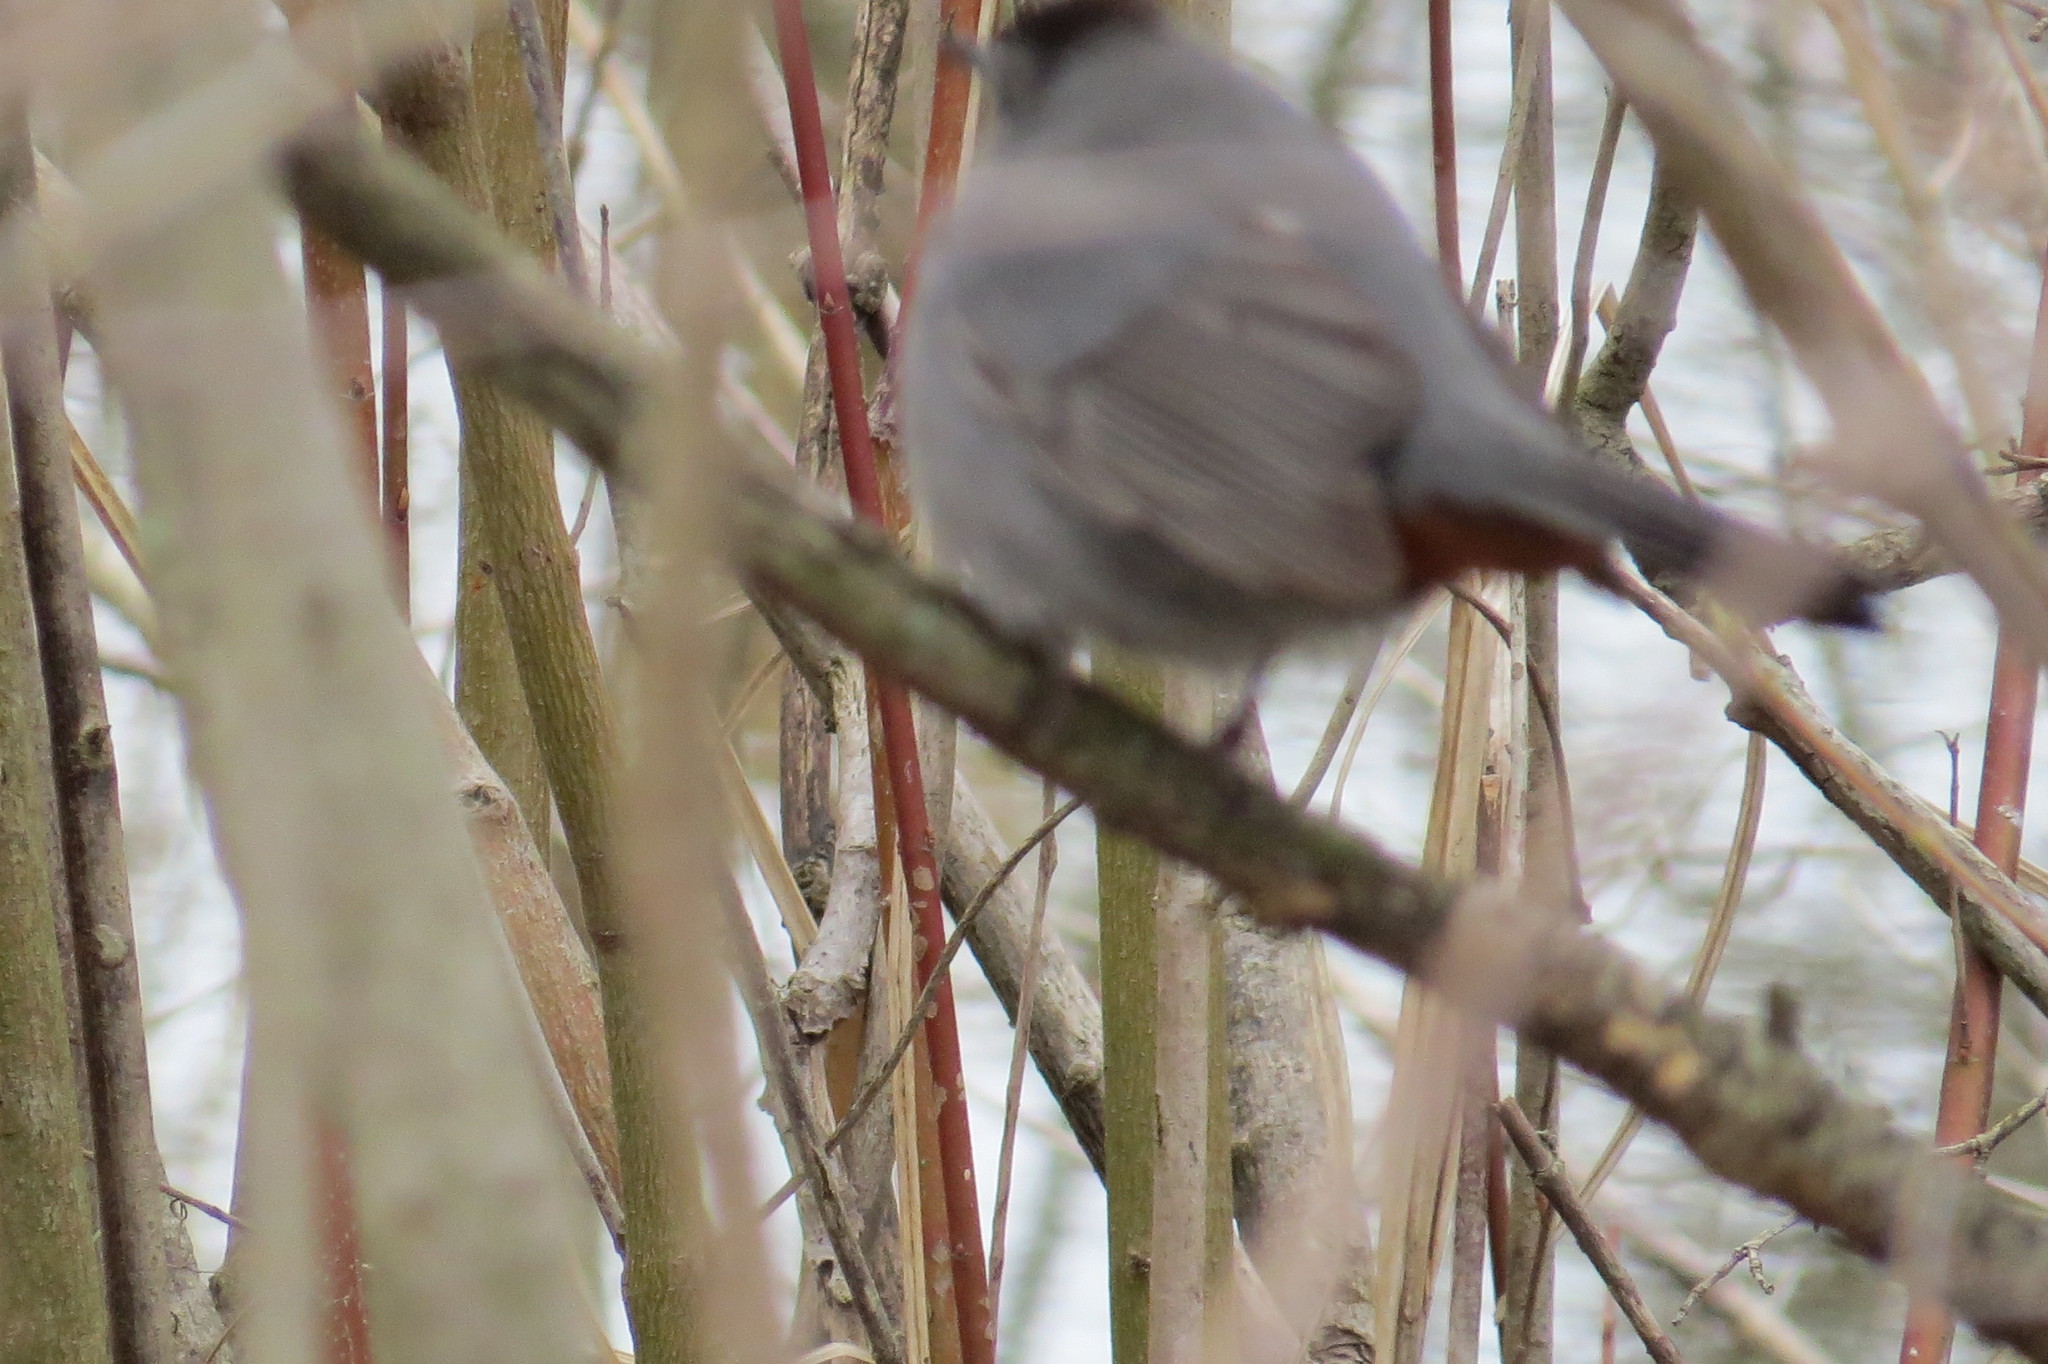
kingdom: Animalia
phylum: Chordata
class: Aves
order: Passeriformes
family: Mimidae
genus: Dumetella
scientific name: Dumetella carolinensis
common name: Gray catbird
